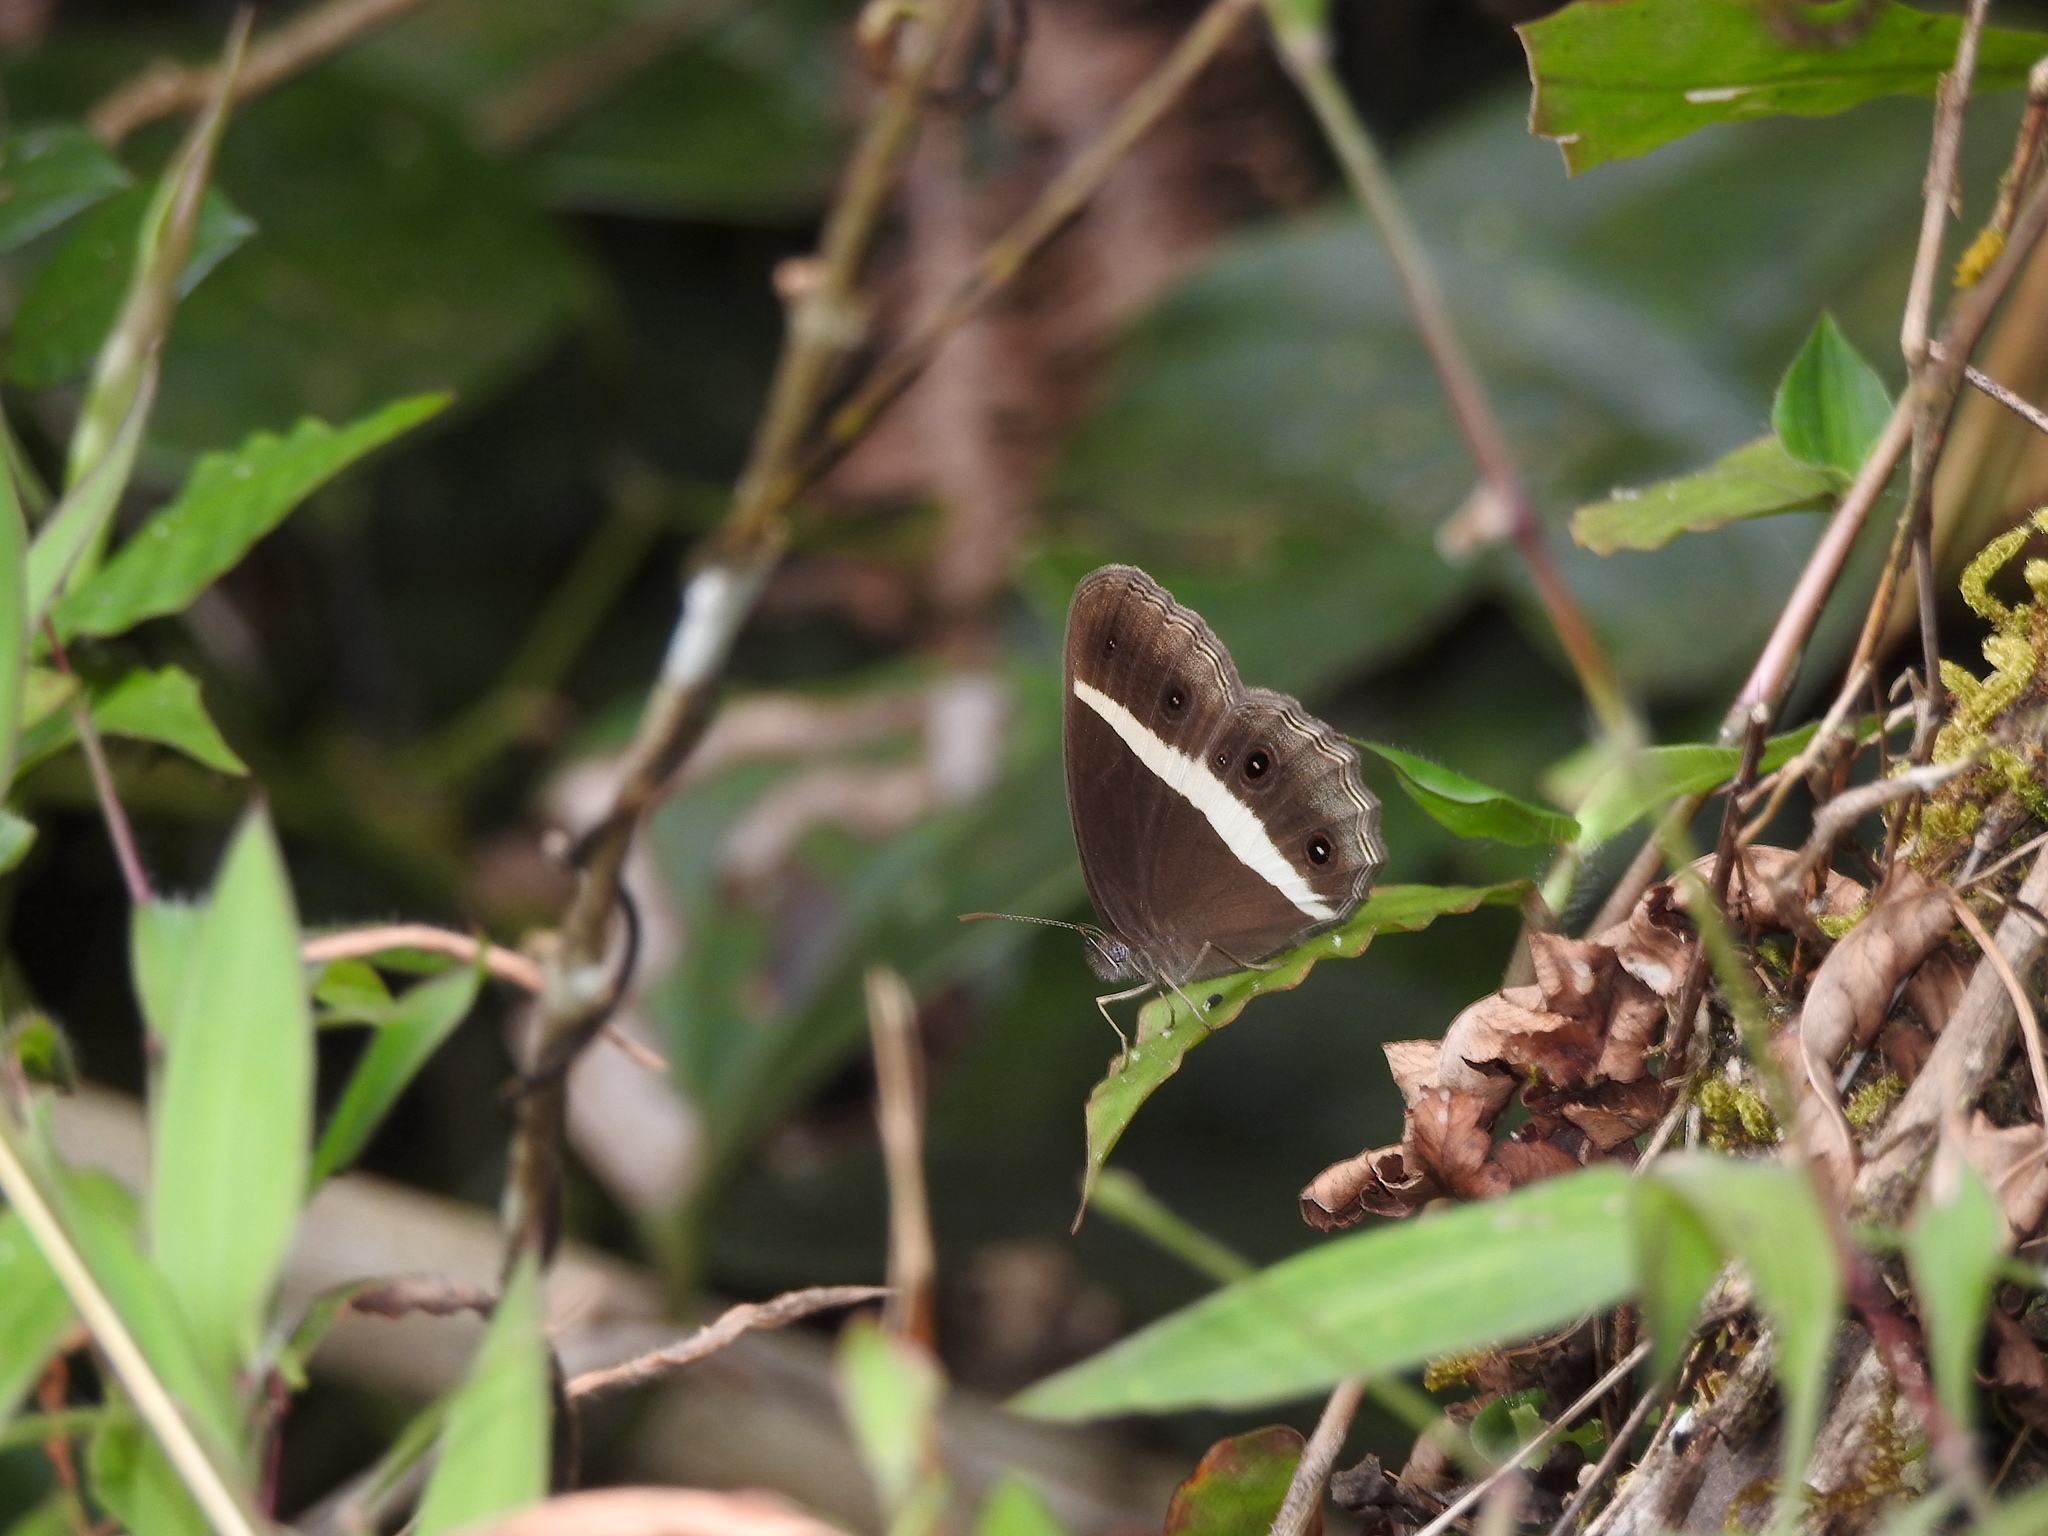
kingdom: Animalia
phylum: Arthropoda
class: Insecta
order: Lepidoptera
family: Nymphalidae
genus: Orsotriaena
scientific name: Orsotriaena medus
